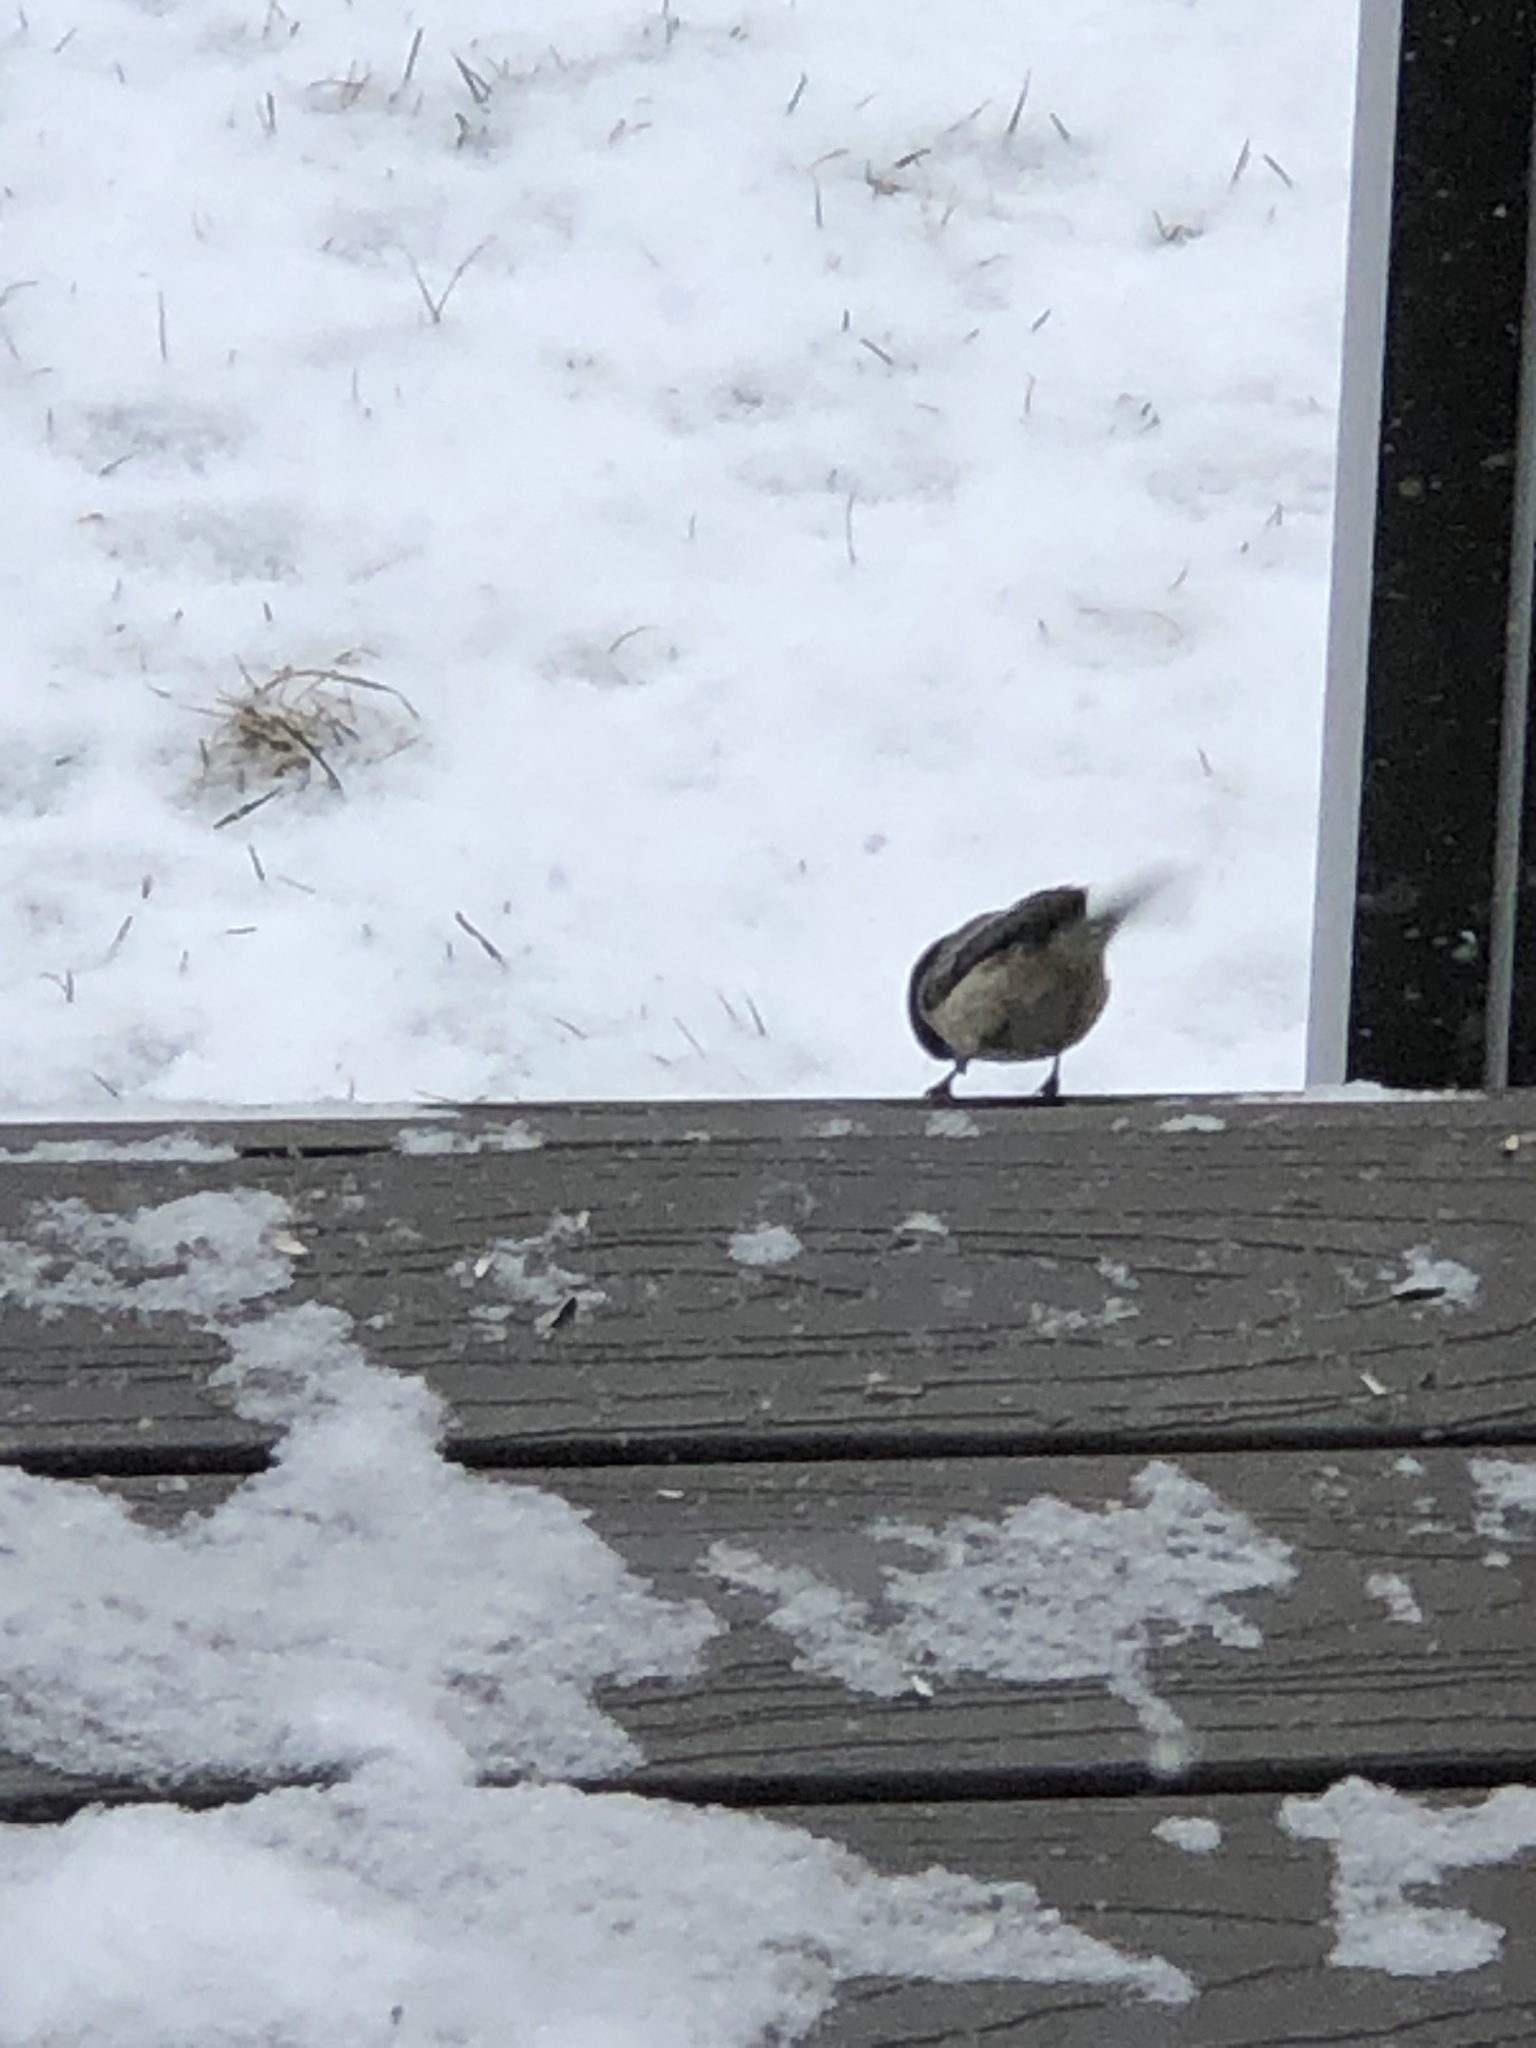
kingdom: Animalia
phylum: Chordata
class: Aves
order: Passeriformes
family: Paridae
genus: Poecile
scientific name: Poecile atricapillus
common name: Black-capped chickadee
